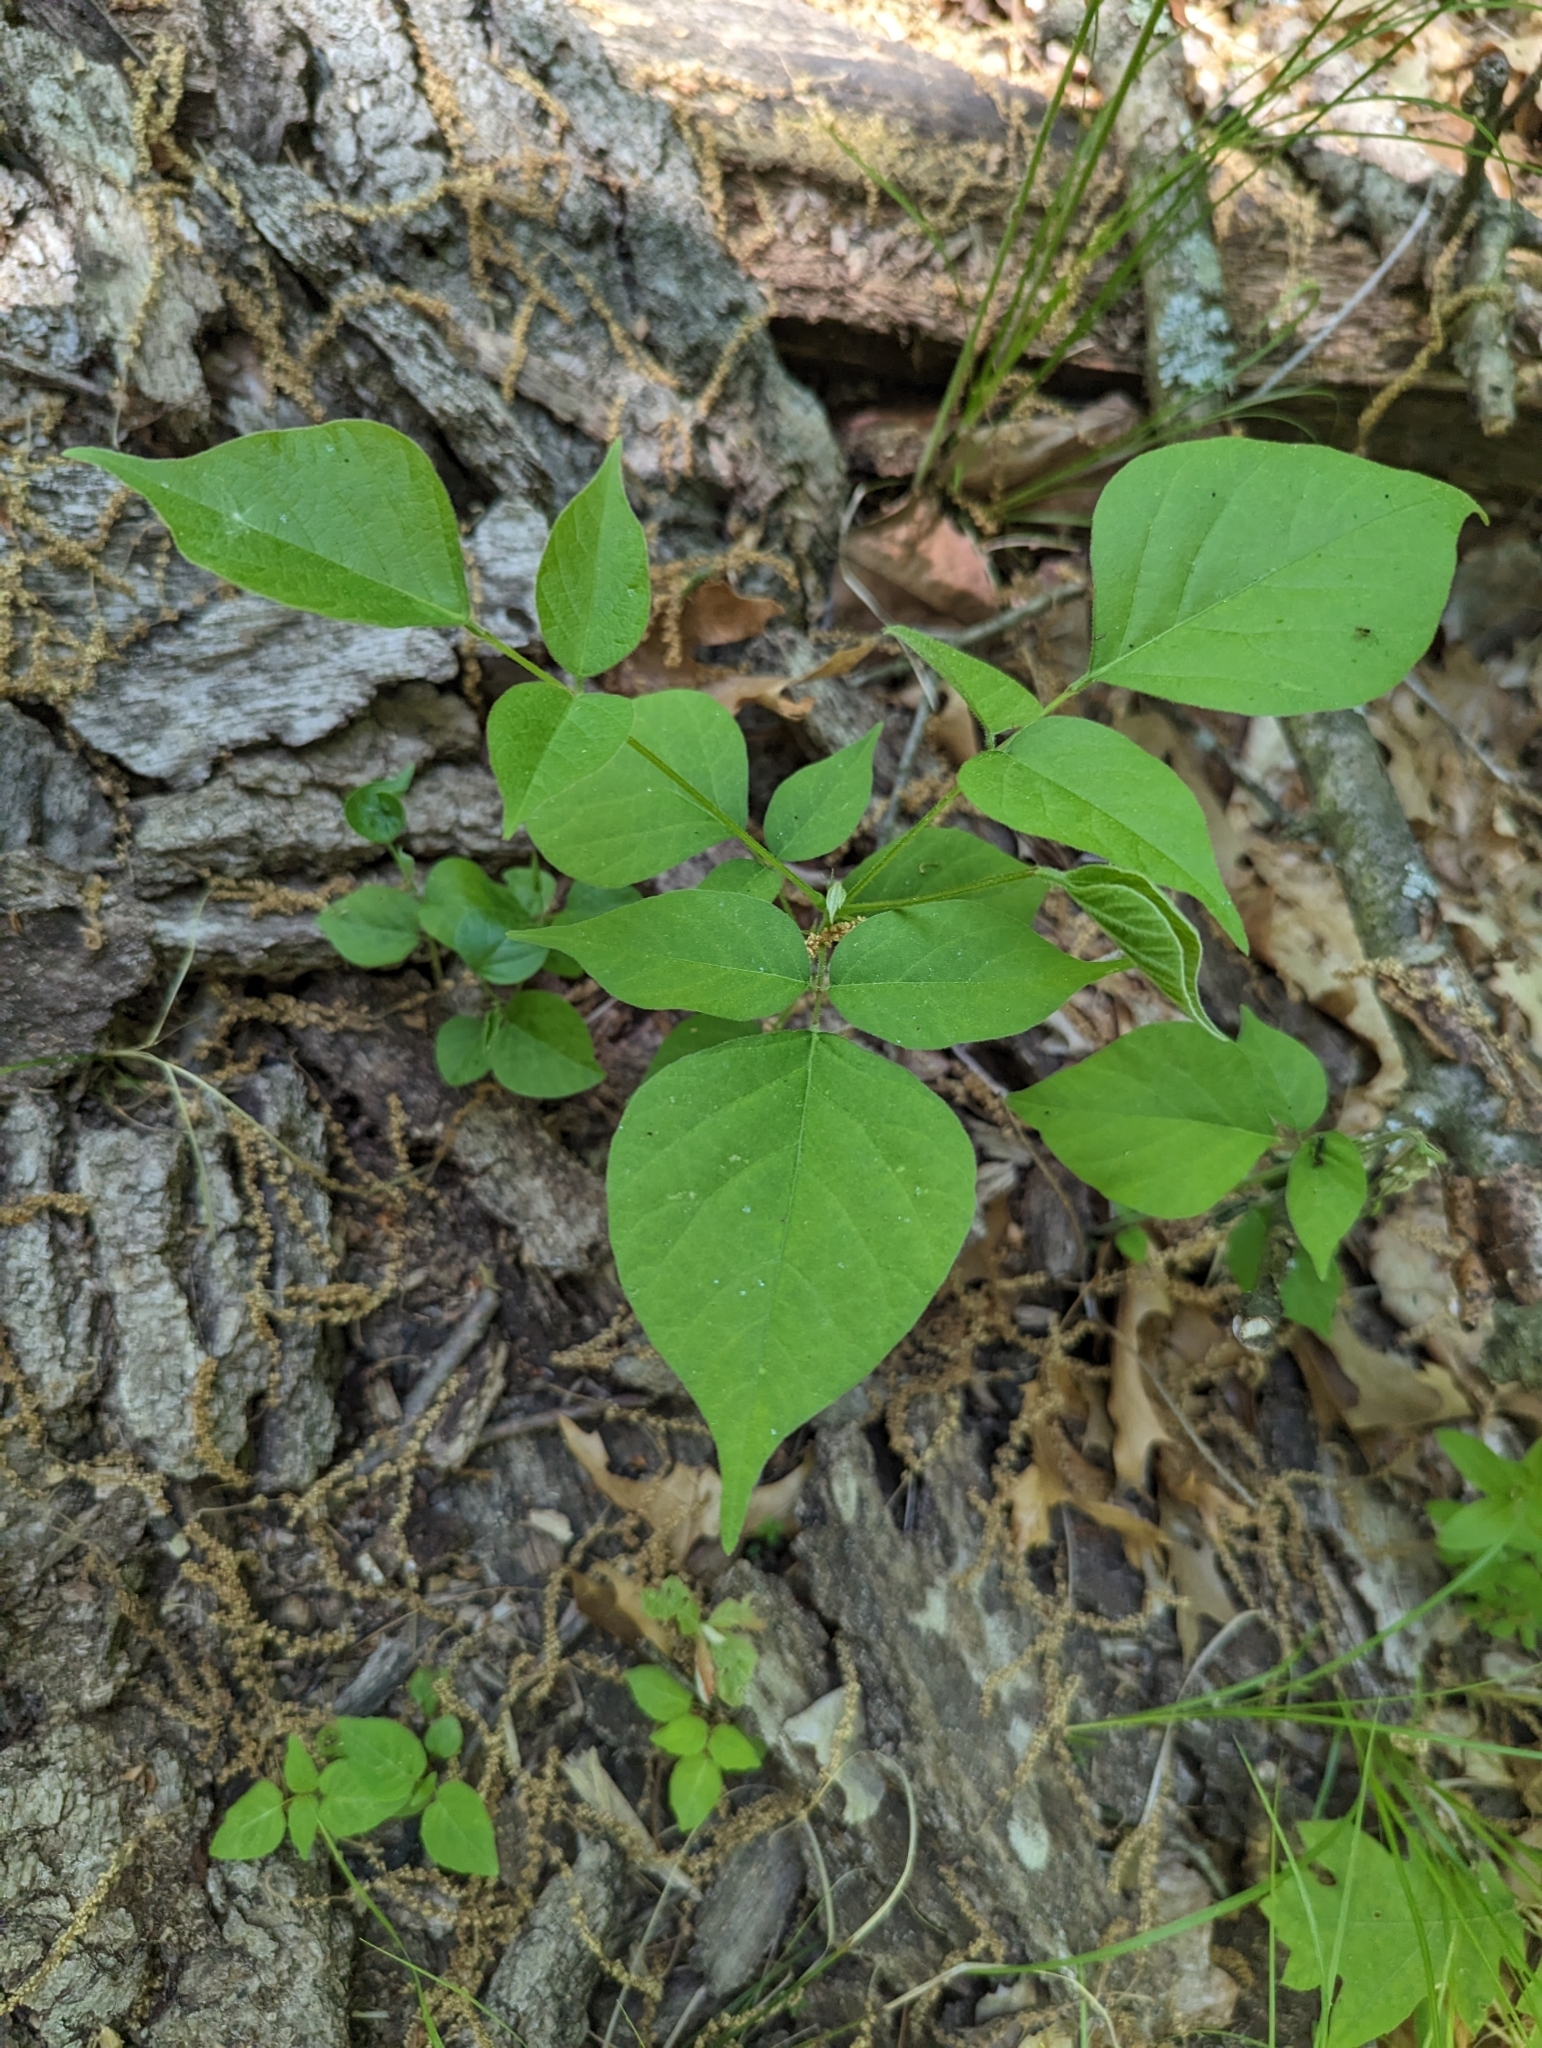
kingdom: Plantae
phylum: Tracheophyta
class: Magnoliopsida
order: Fabales
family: Fabaceae
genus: Hylodesmum
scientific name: Hylodesmum glutinosum
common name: Clustered-leaved tick-trefoil
